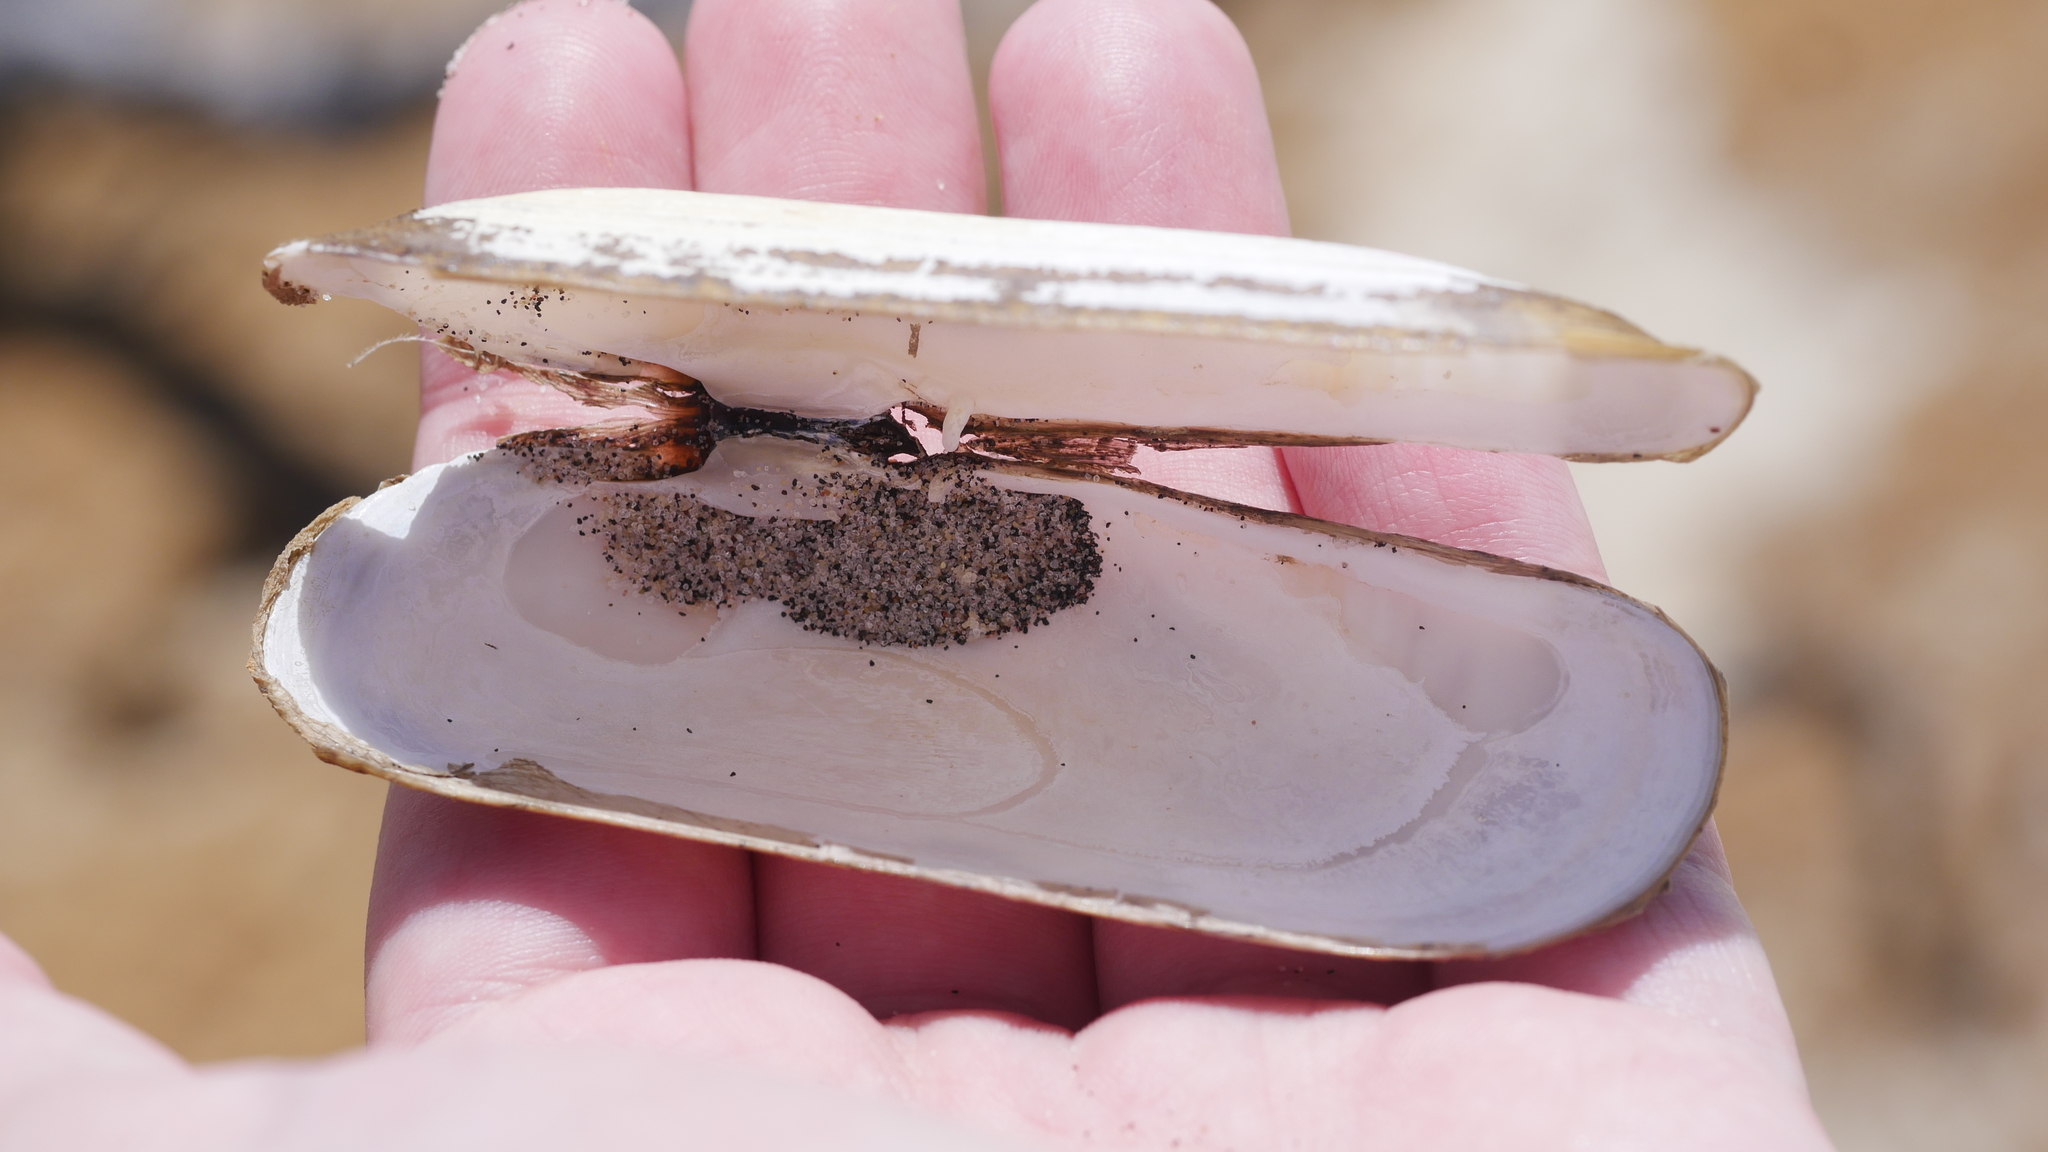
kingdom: Animalia
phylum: Mollusca
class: Bivalvia
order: Cardiida
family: Solecurtidae
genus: Tagelus
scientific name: Tagelus plebeius
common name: Stout tagelus
